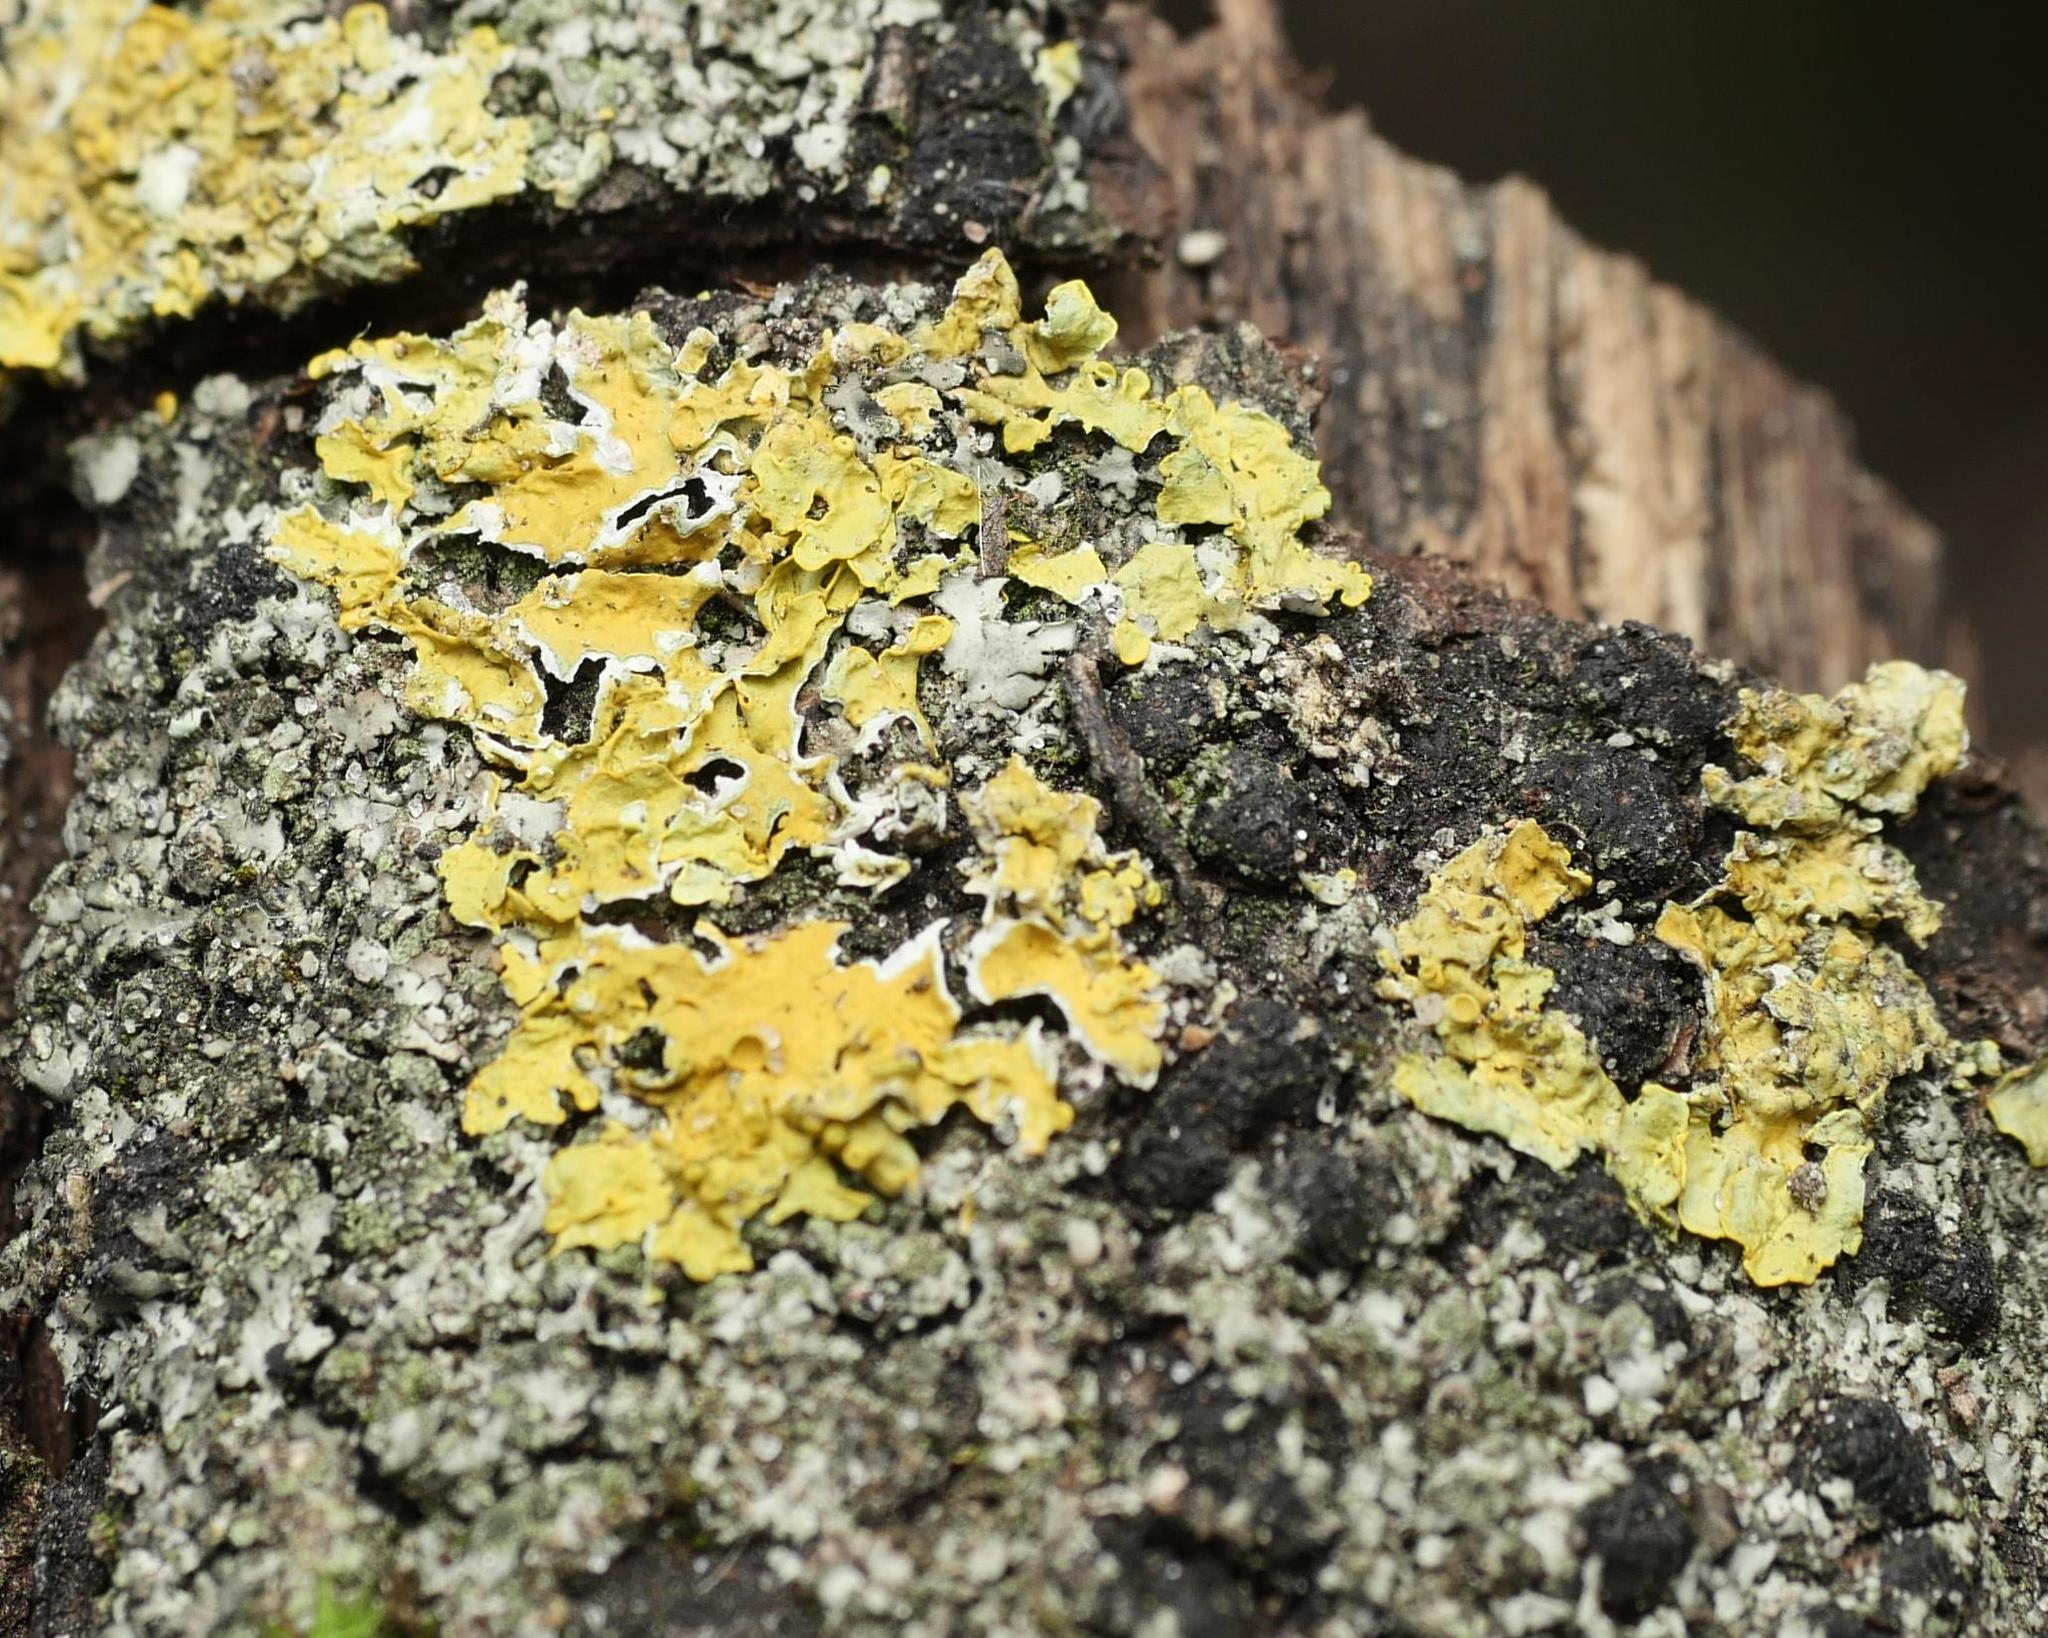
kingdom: Fungi
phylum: Ascomycota
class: Lecanoromycetes
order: Teloschistales
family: Teloschistaceae
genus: Xanthoria
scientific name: Xanthoria parietina
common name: Common orange lichen
